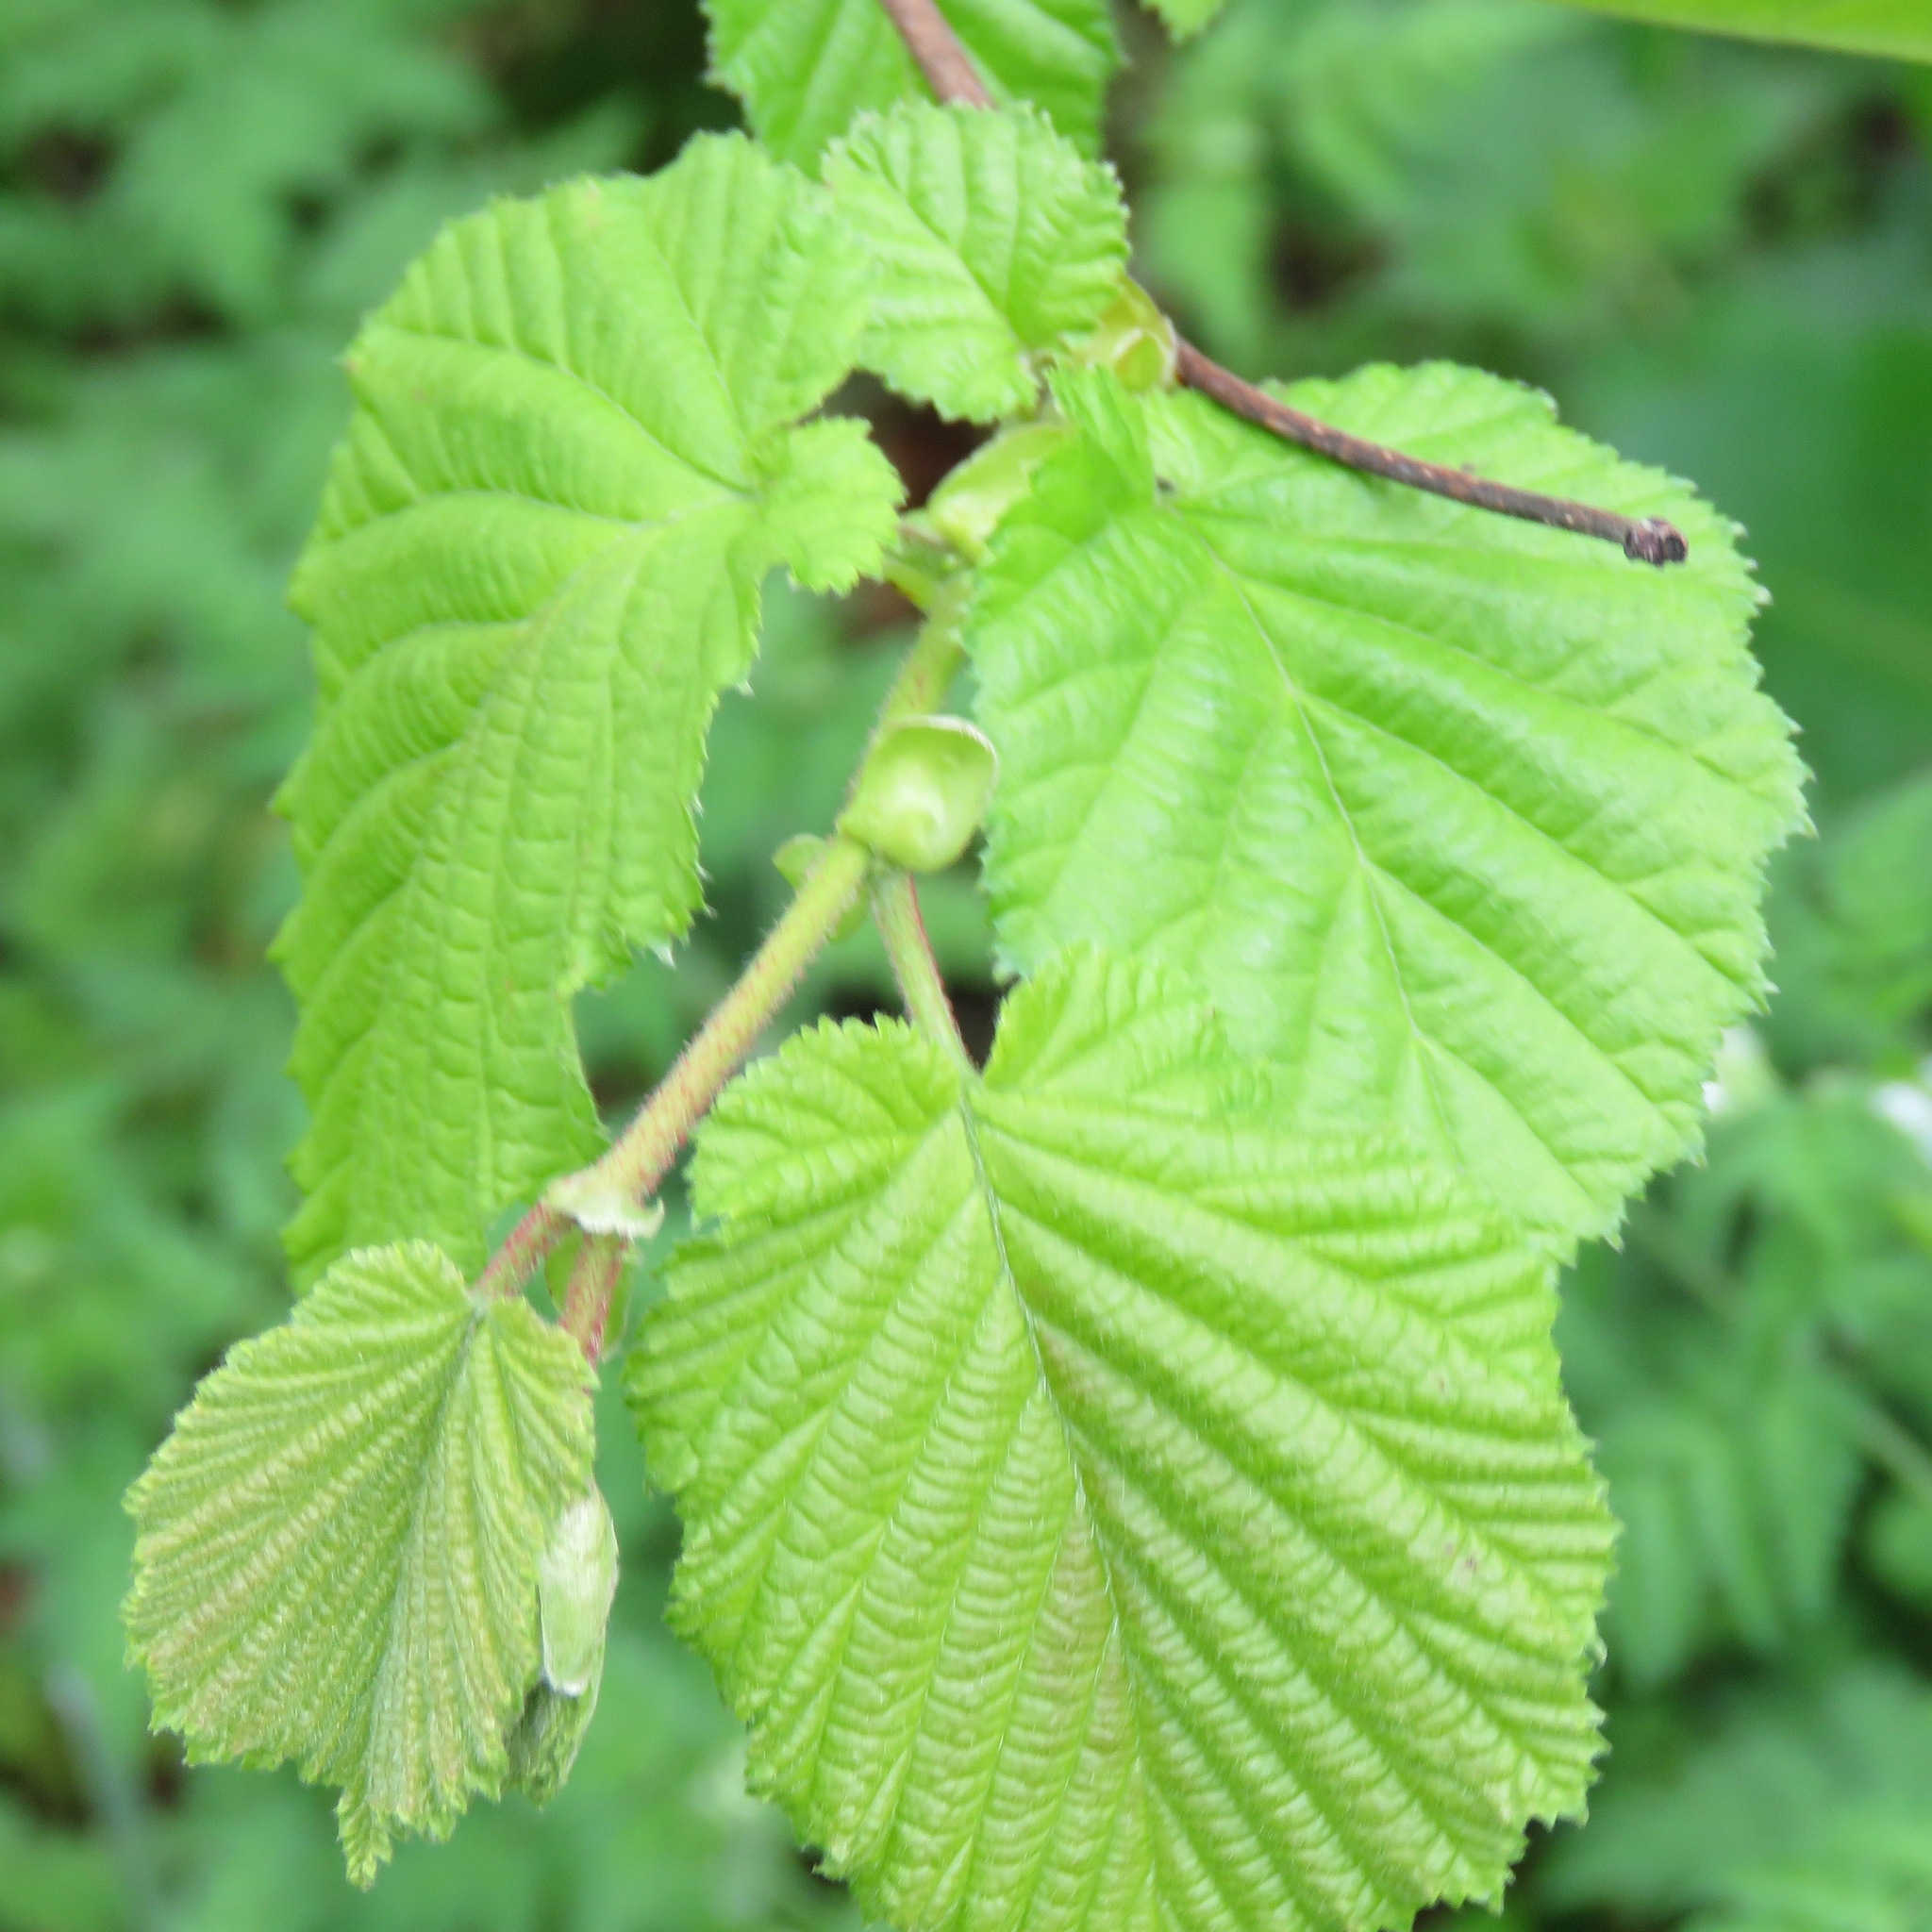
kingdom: Plantae
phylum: Tracheophyta
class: Magnoliopsida
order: Fagales
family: Betulaceae
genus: Corylus
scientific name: Corylus avellana
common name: European hazel
